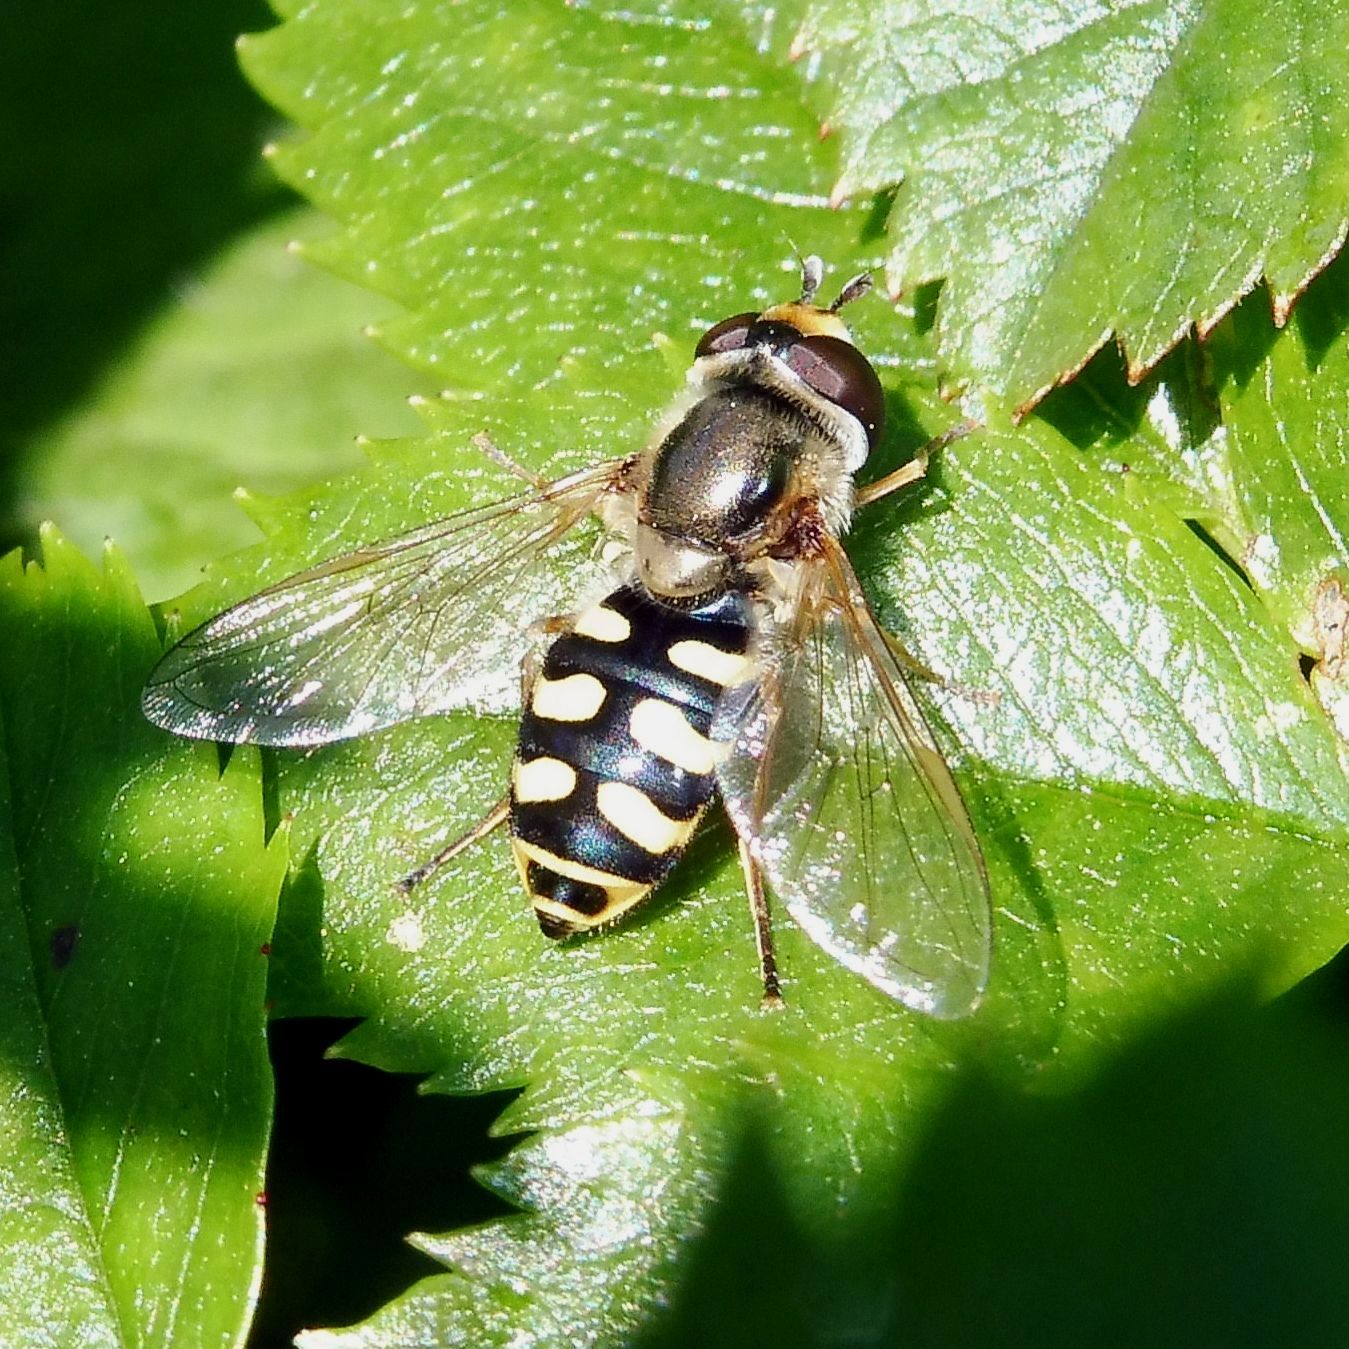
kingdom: Animalia
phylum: Arthropoda
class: Insecta
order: Diptera
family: Syrphidae
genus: Eupeodes
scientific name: Eupeodes corollae
